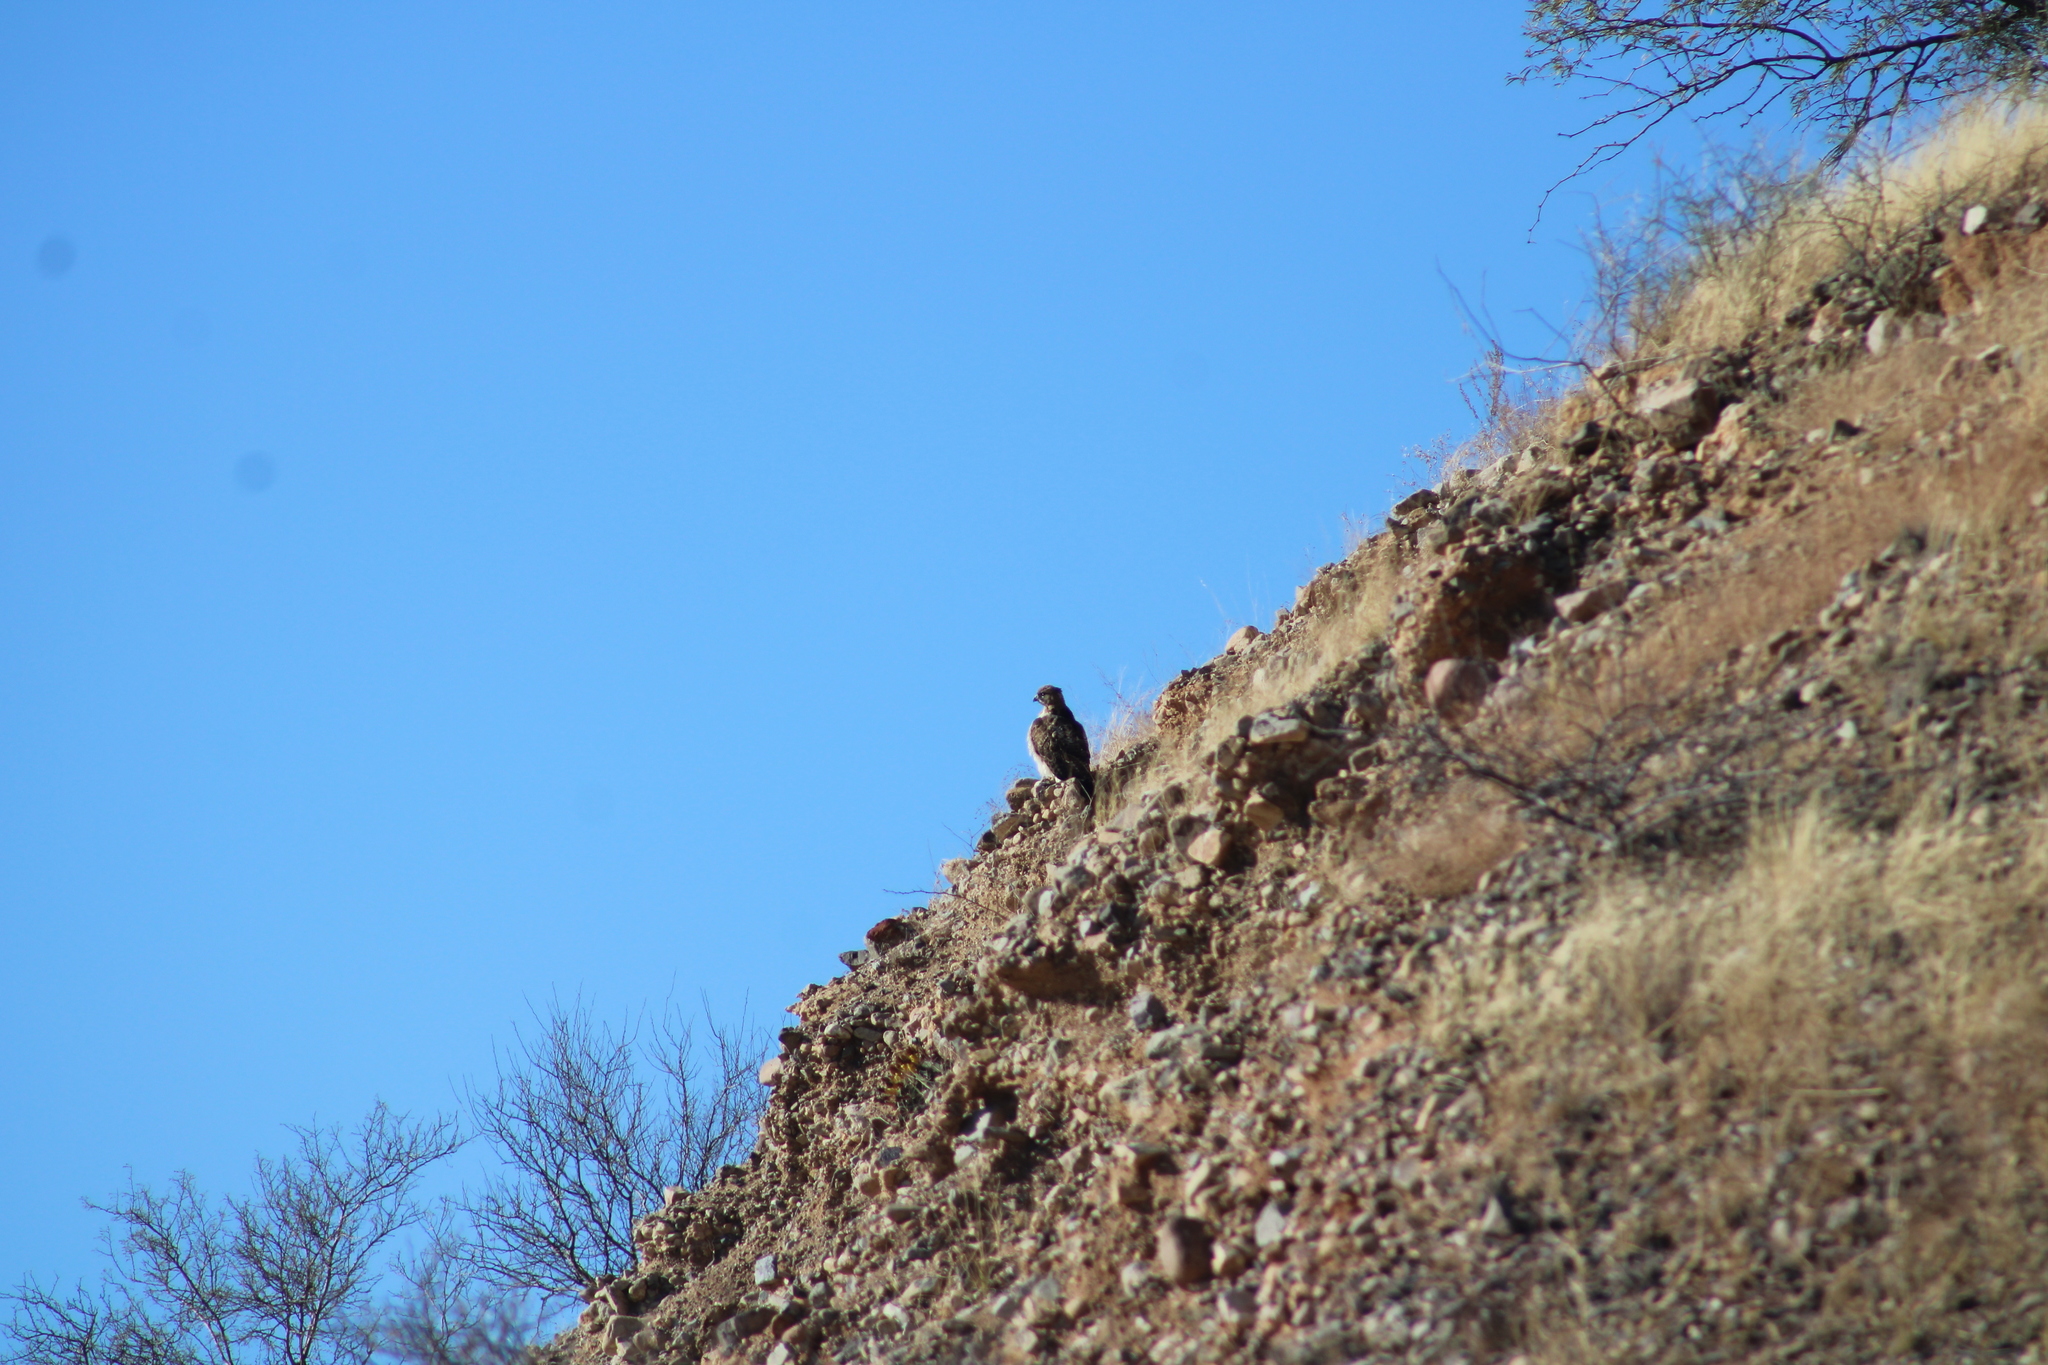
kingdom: Animalia
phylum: Chordata
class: Aves
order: Accipitriformes
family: Accipitridae
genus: Buteo
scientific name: Buteo jamaicensis
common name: Red-tailed hawk
